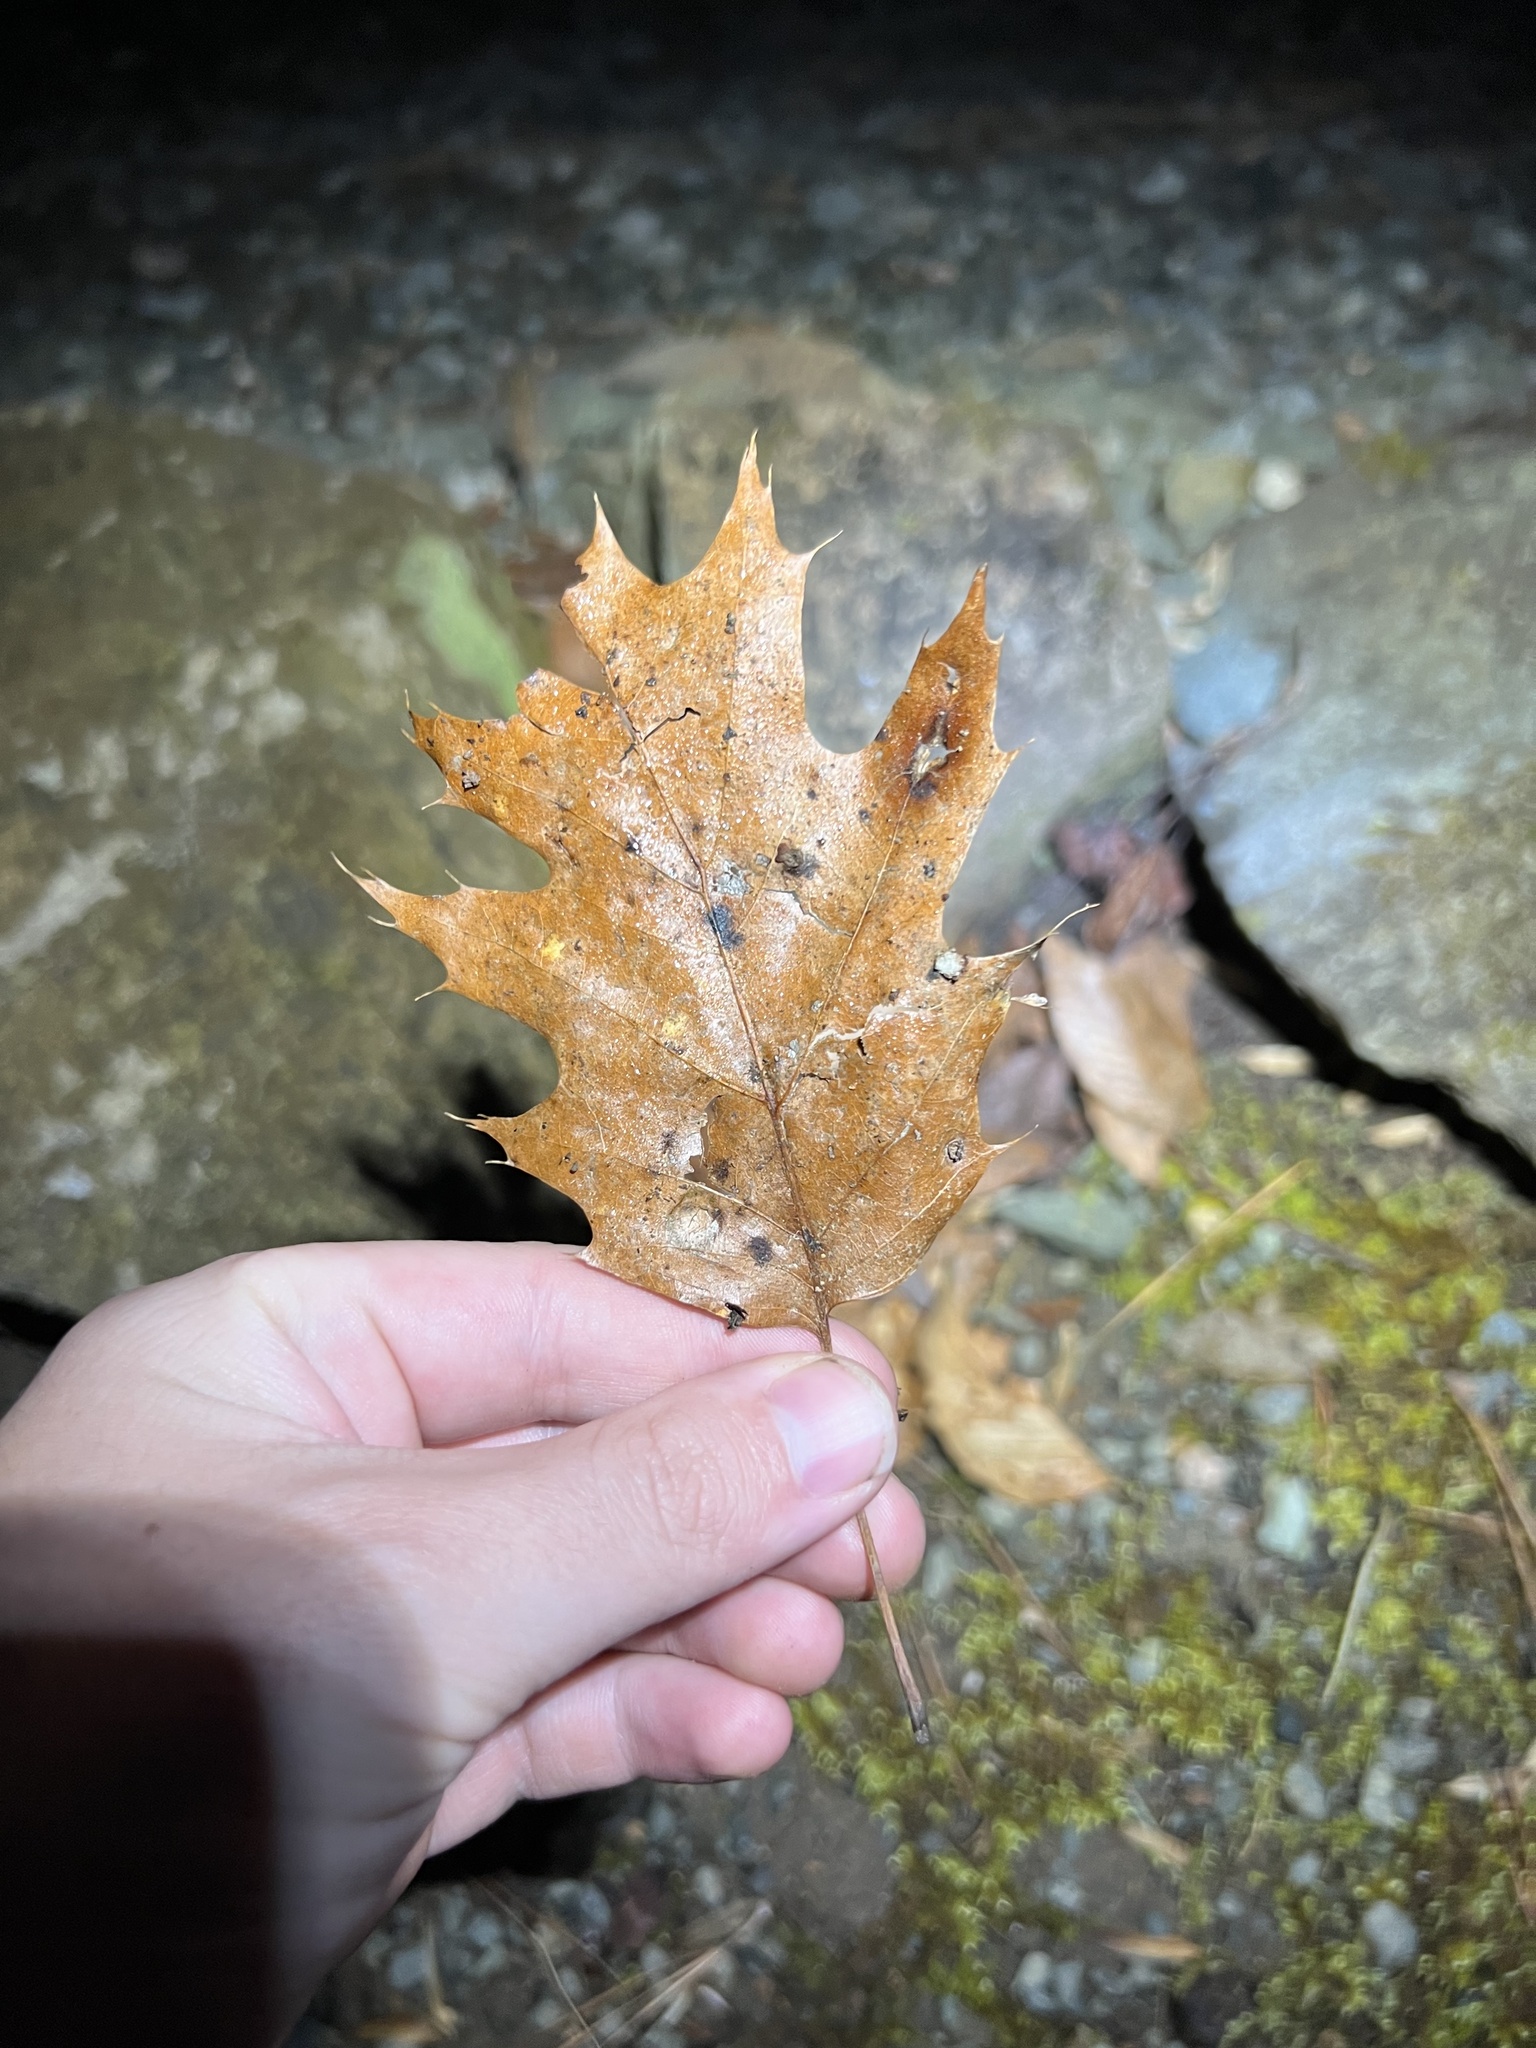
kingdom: Plantae
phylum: Tracheophyta
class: Magnoliopsida
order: Fagales
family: Fagaceae
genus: Quercus
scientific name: Quercus rubra
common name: Red oak
